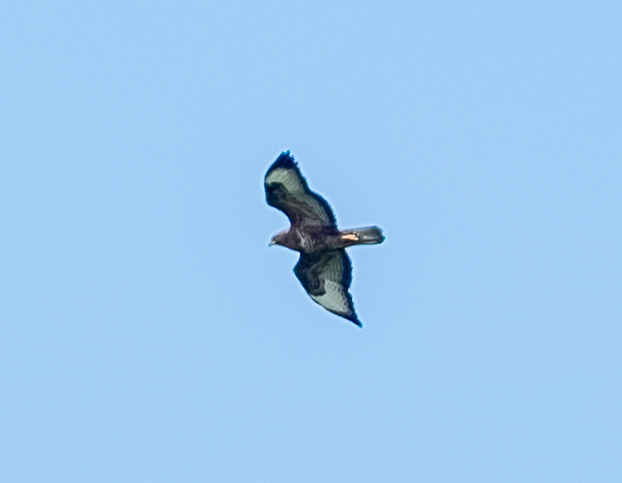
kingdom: Animalia
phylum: Chordata
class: Aves
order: Accipitriformes
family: Accipitridae
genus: Buteo
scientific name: Buteo buteo
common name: Common buzzard
